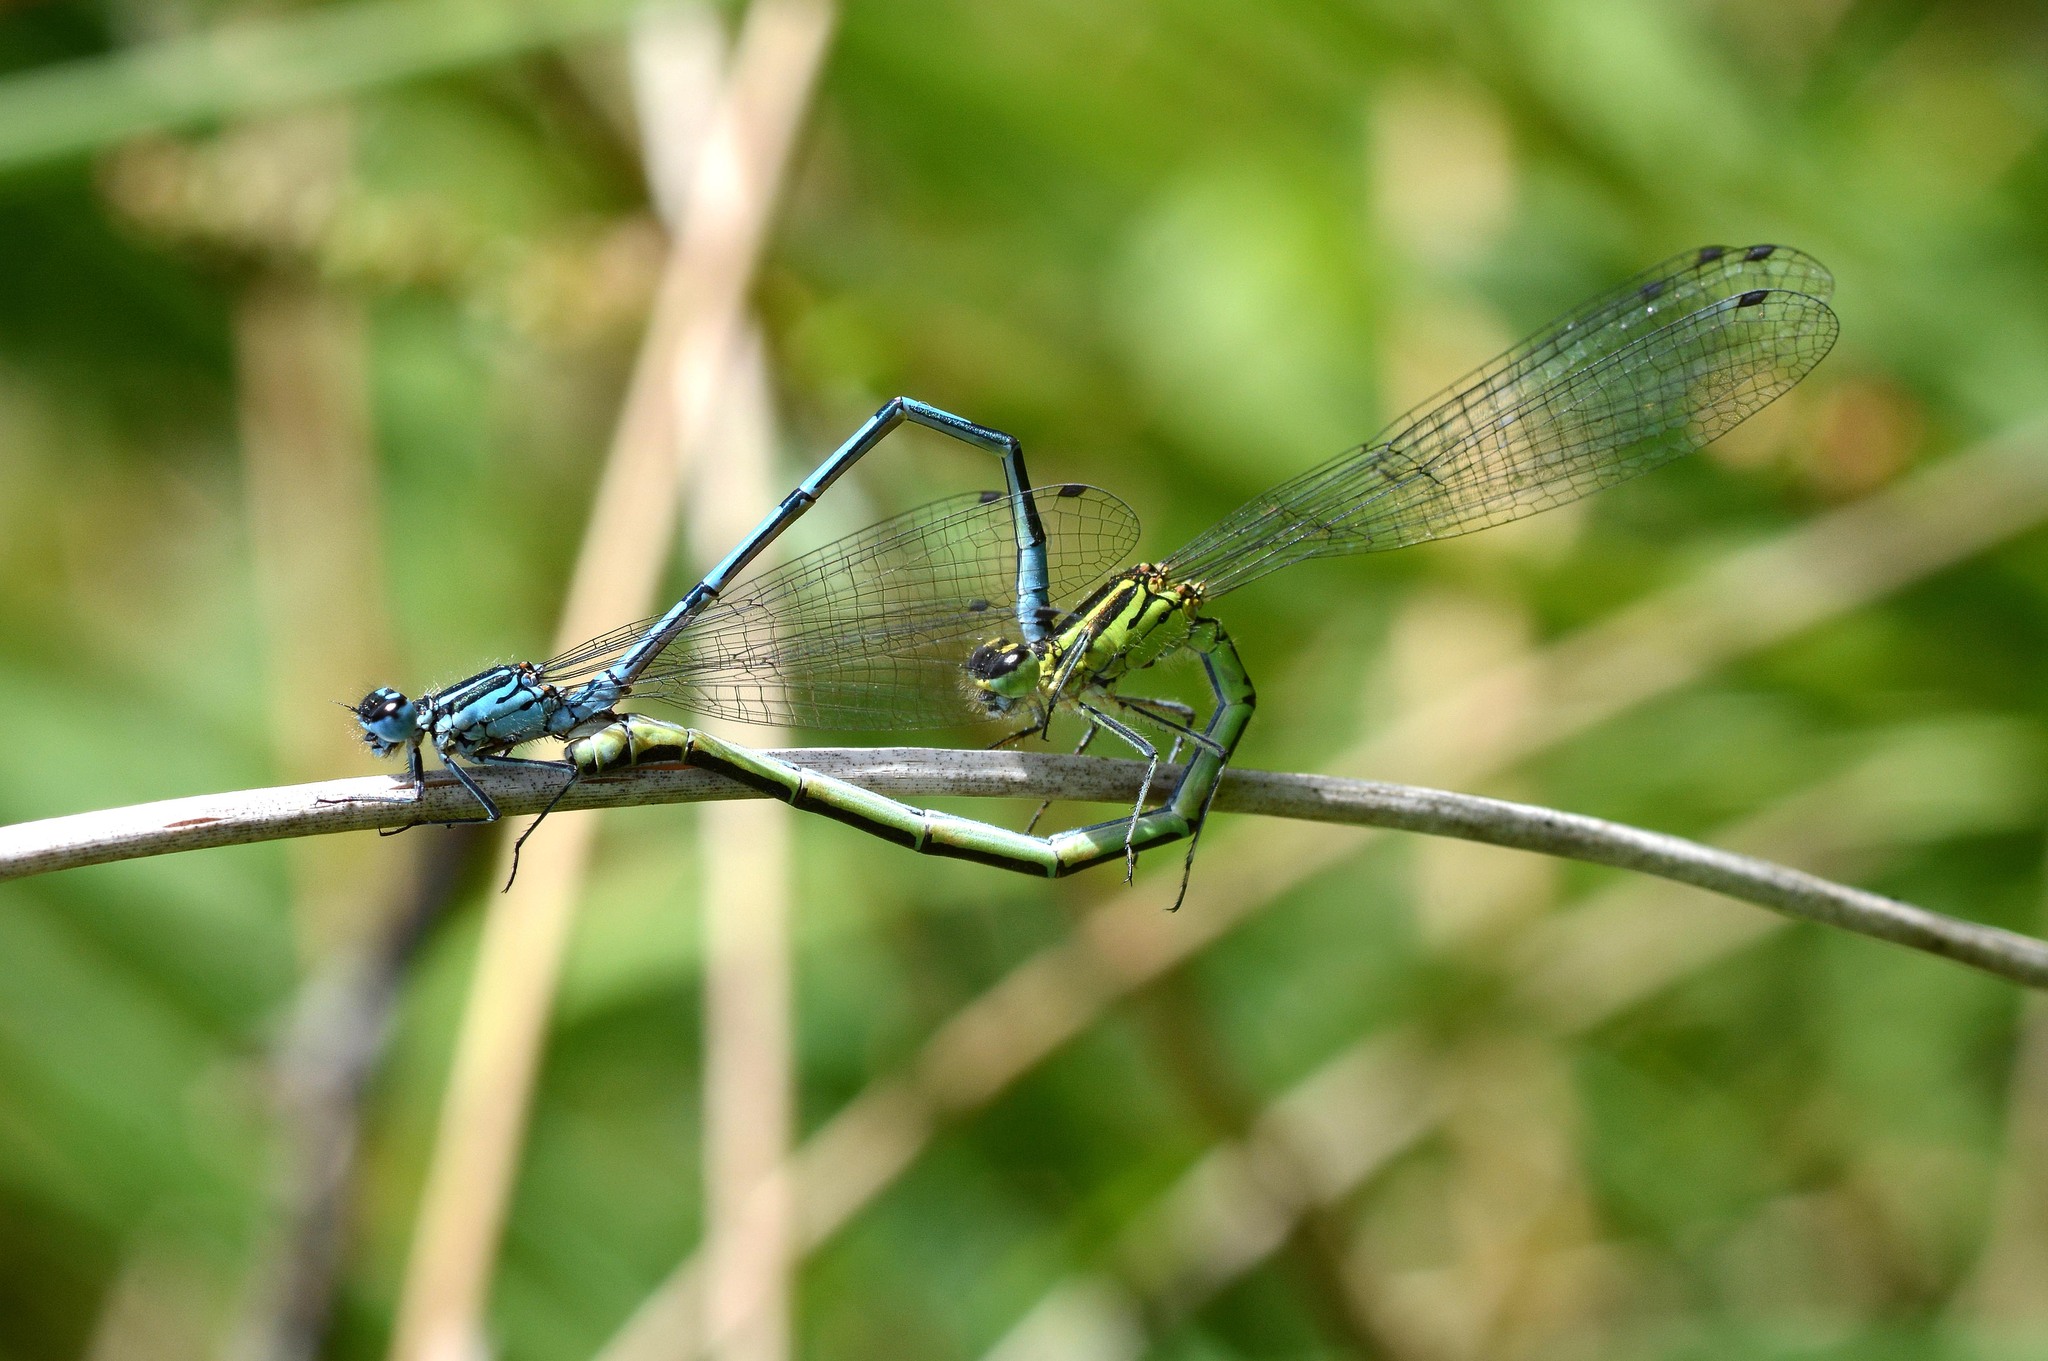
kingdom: Animalia
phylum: Arthropoda
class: Insecta
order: Odonata
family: Coenagrionidae
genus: Coenagrion
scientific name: Coenagrion puella
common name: Azure damselfly
